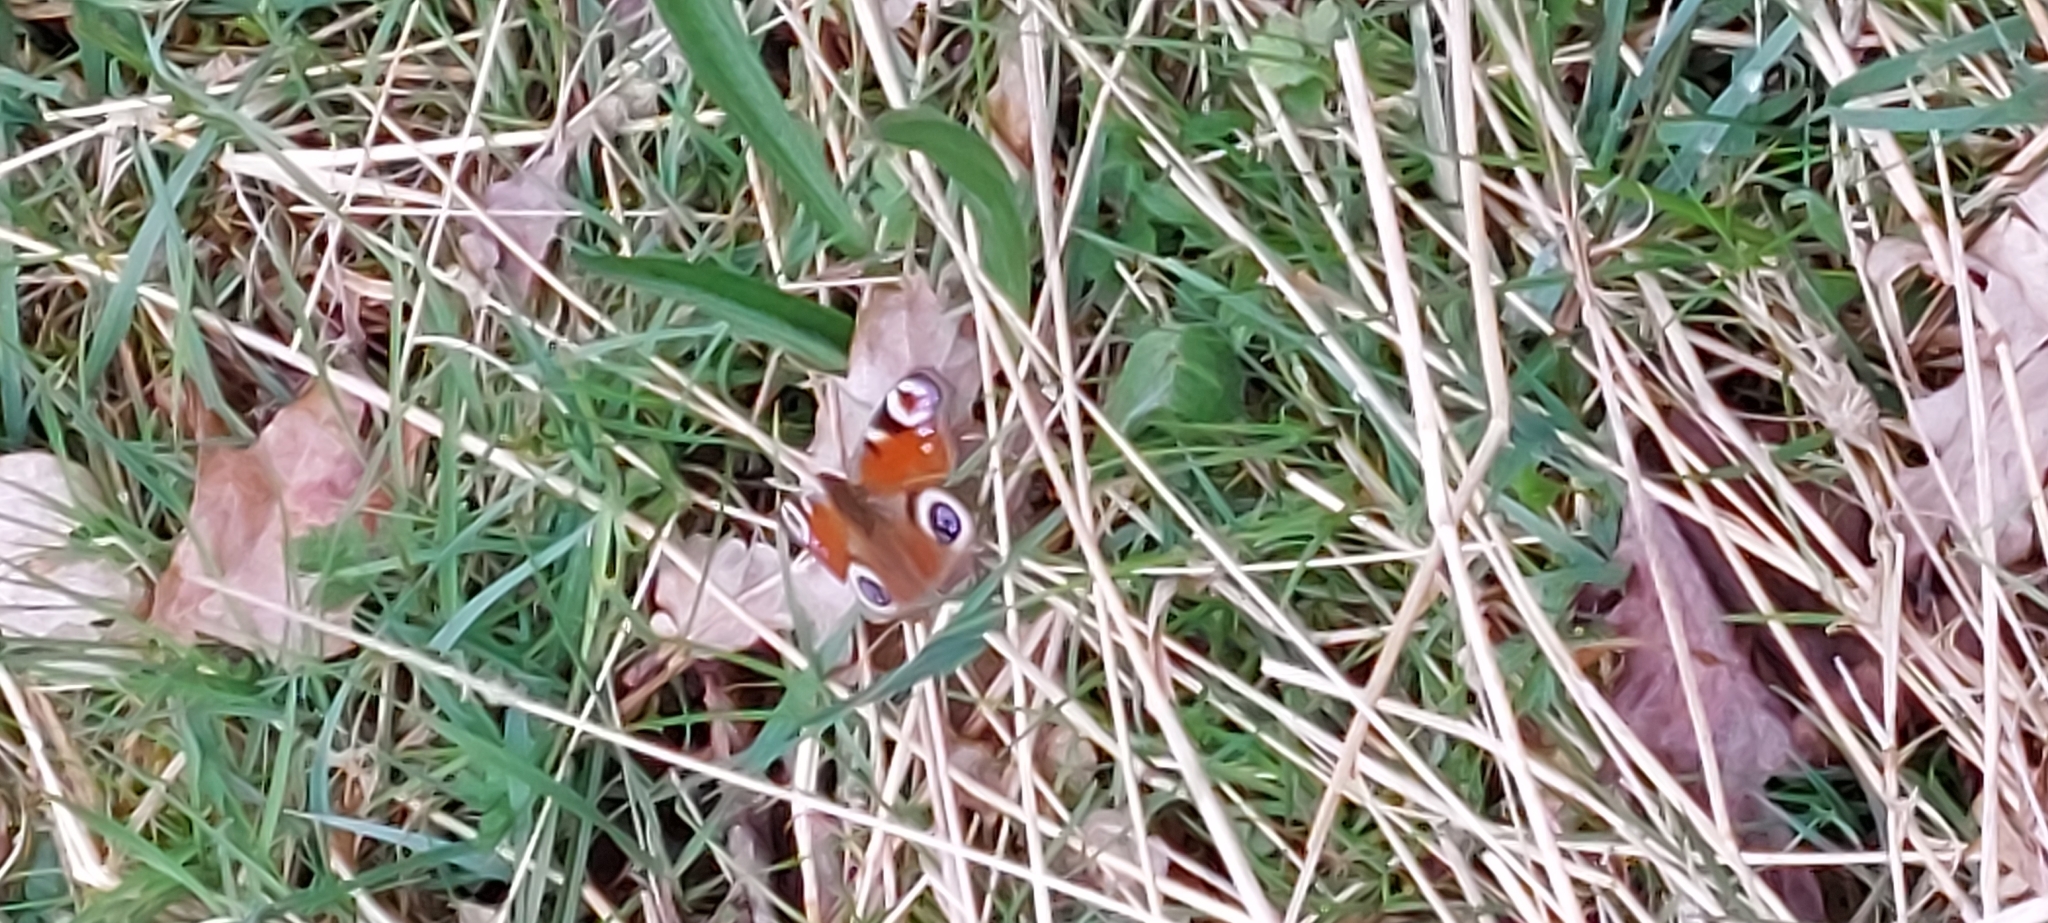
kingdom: Animalia
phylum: Arthropoda
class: Insecta
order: Lepidoptera
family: Nymphalidae
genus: Aglais
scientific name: Aglais io
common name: Peacock
